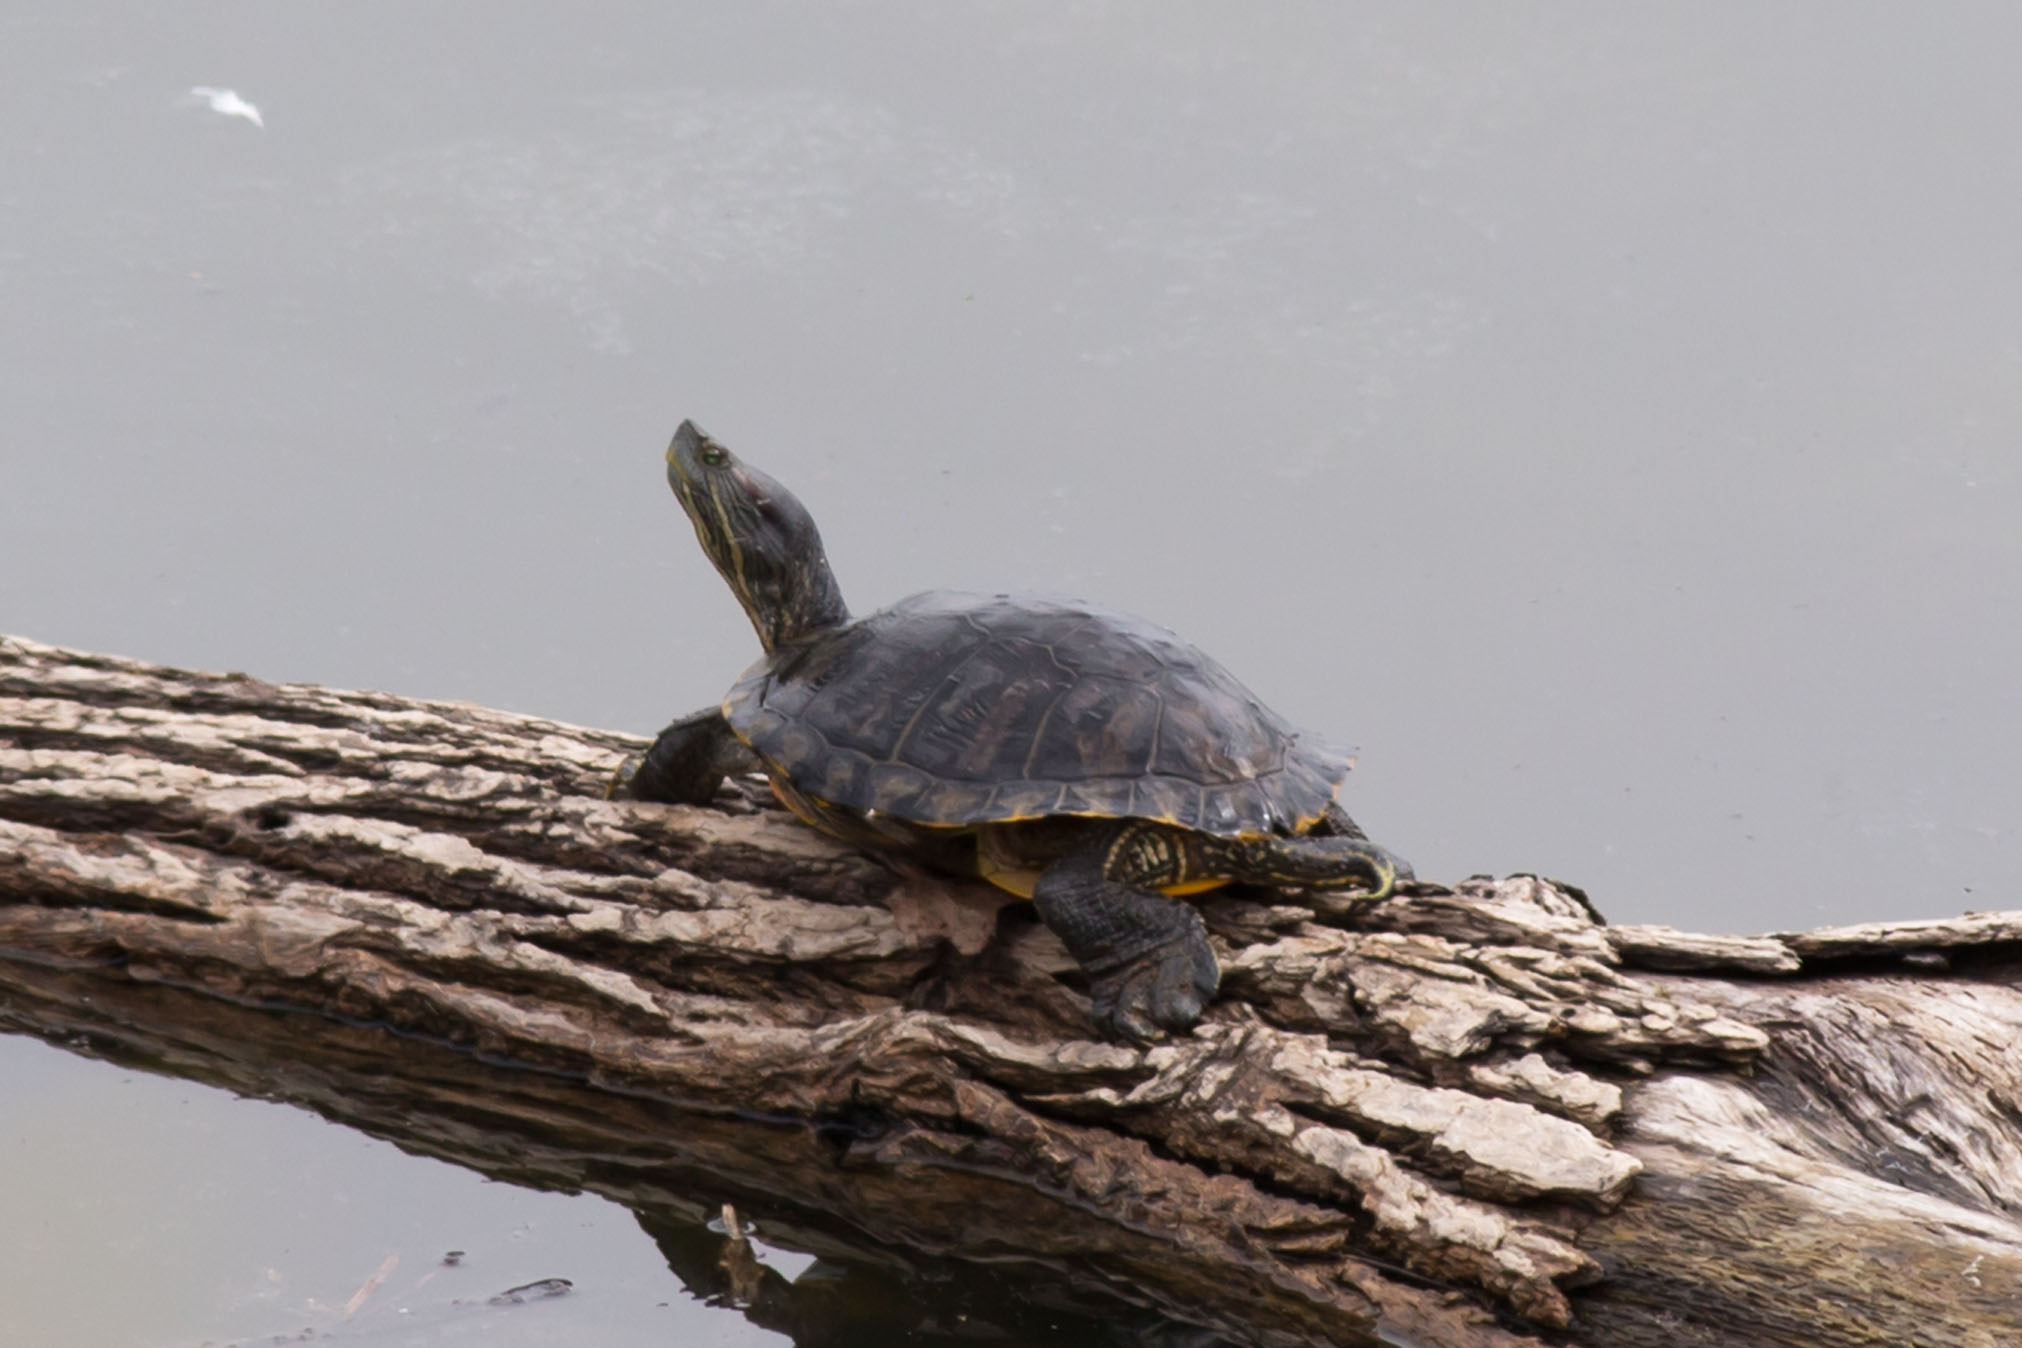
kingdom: Animalia
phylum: Chordata
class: Testudines
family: Emydidae
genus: Trachemys
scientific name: Trachemys scripta
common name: Slider
